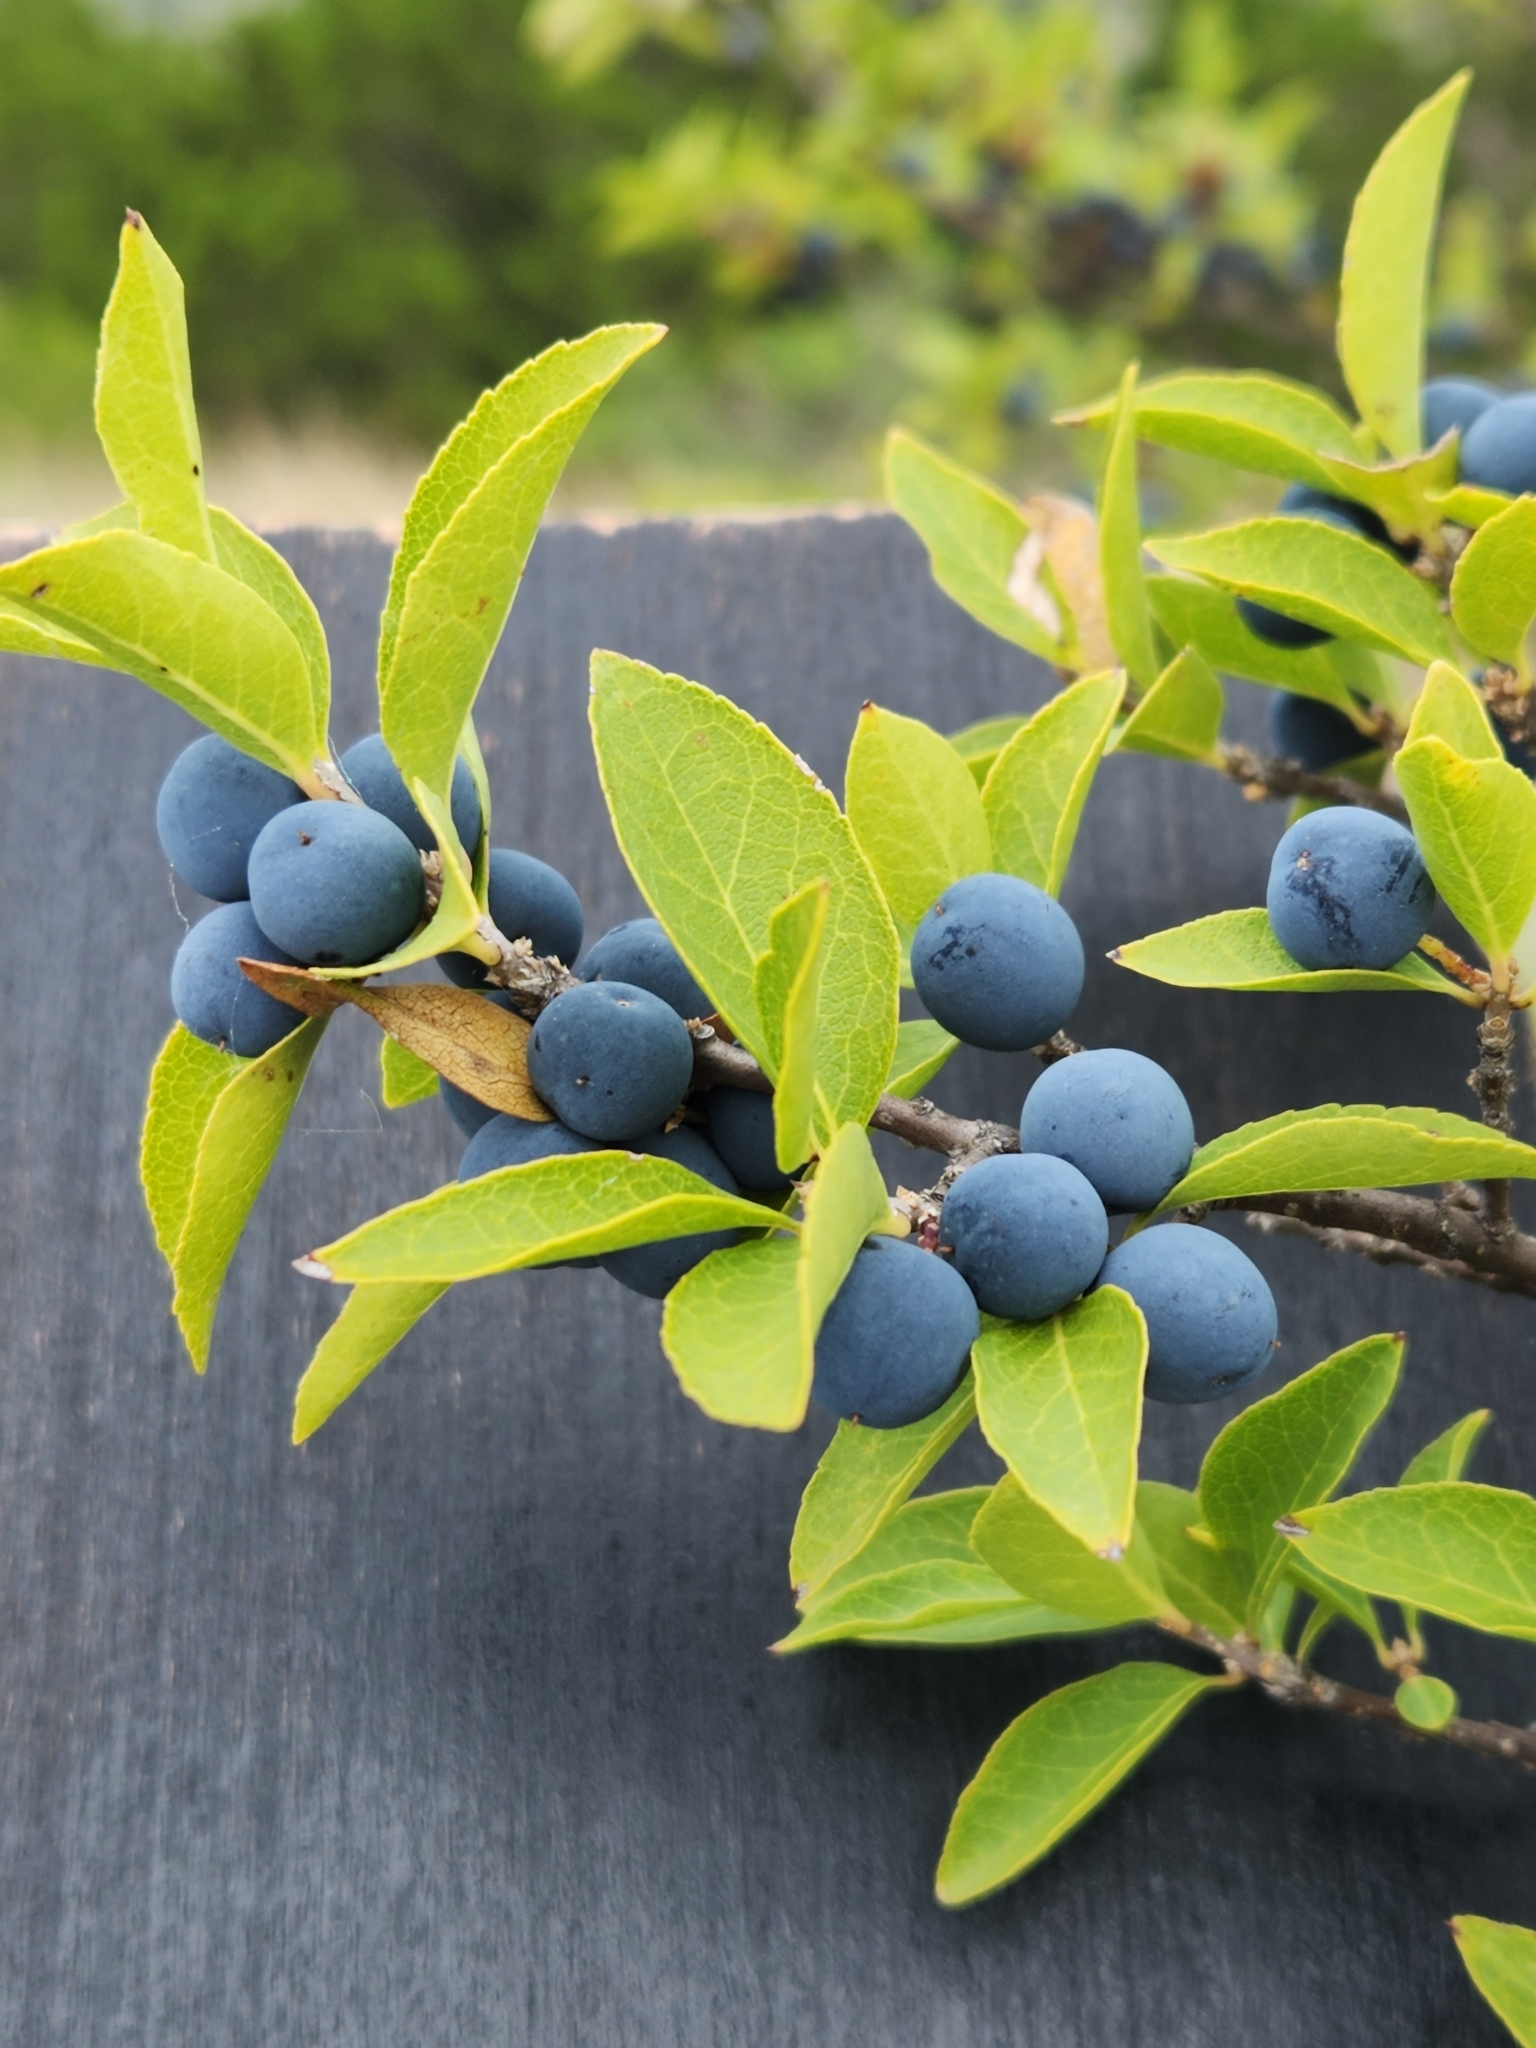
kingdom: Plantae
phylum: Tracheophyta
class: Magnoliopsida
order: Lamiales
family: Oleaceae
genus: Forestiera
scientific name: Forestiera reticulata
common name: Netleaf swamp-privet
